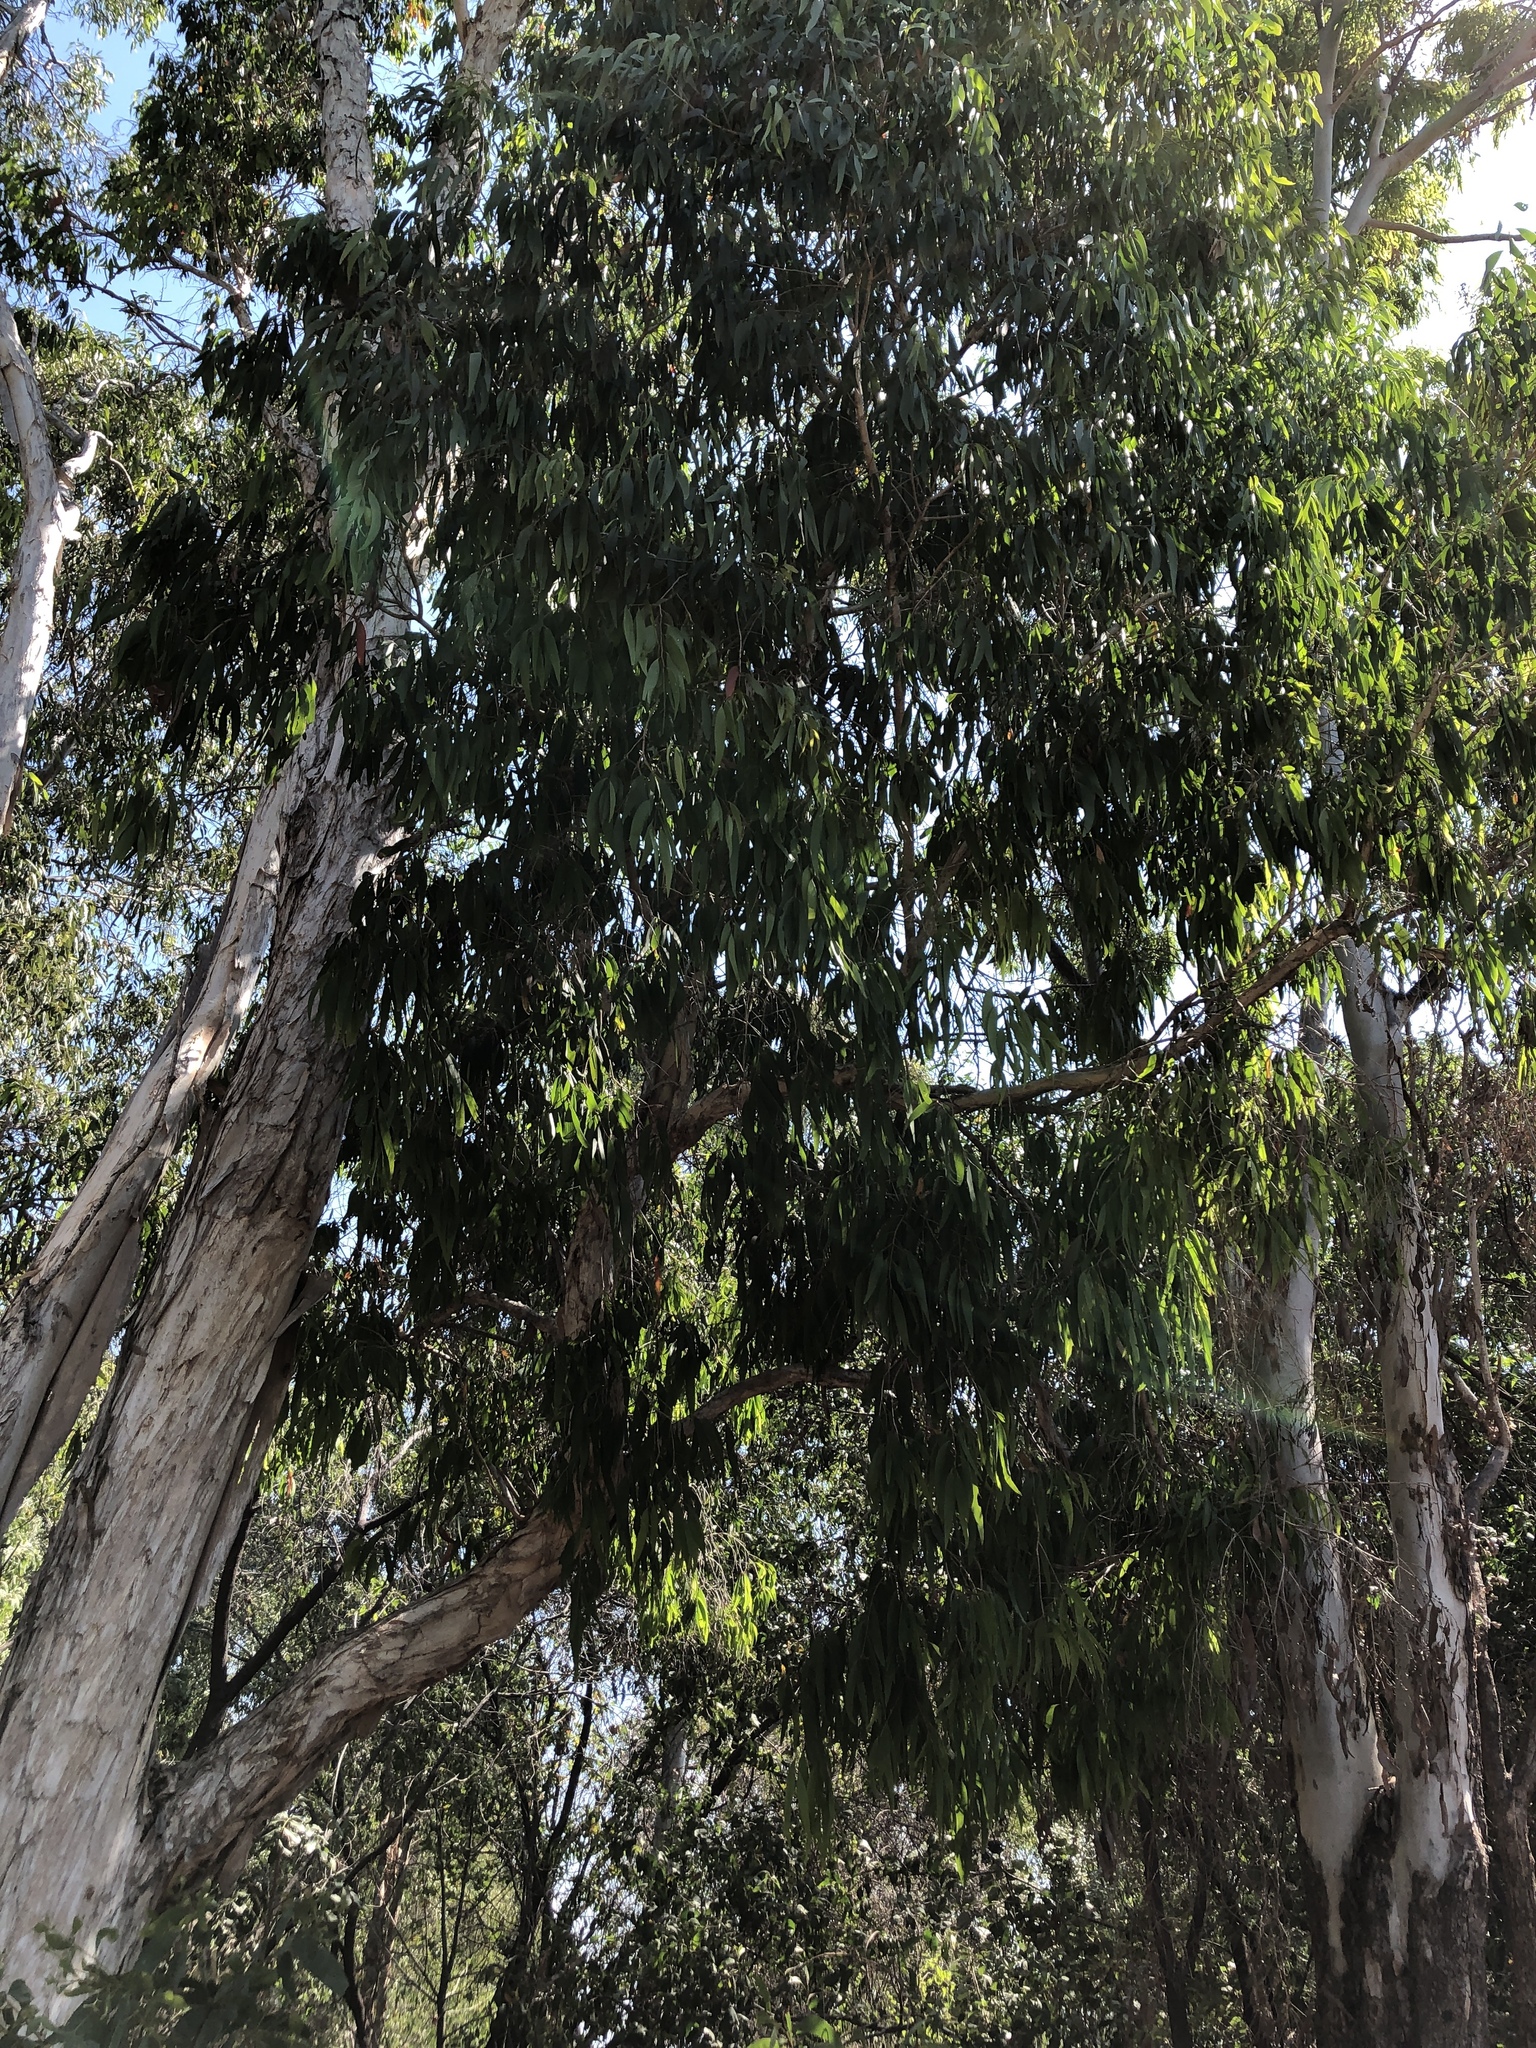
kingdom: Plantae
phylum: Tracheophyta
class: Magnoliopsida
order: Myrtales
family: Myrtaceae
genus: Melaleuca
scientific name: Melaleuca leucadendra
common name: Weeping paperbark
